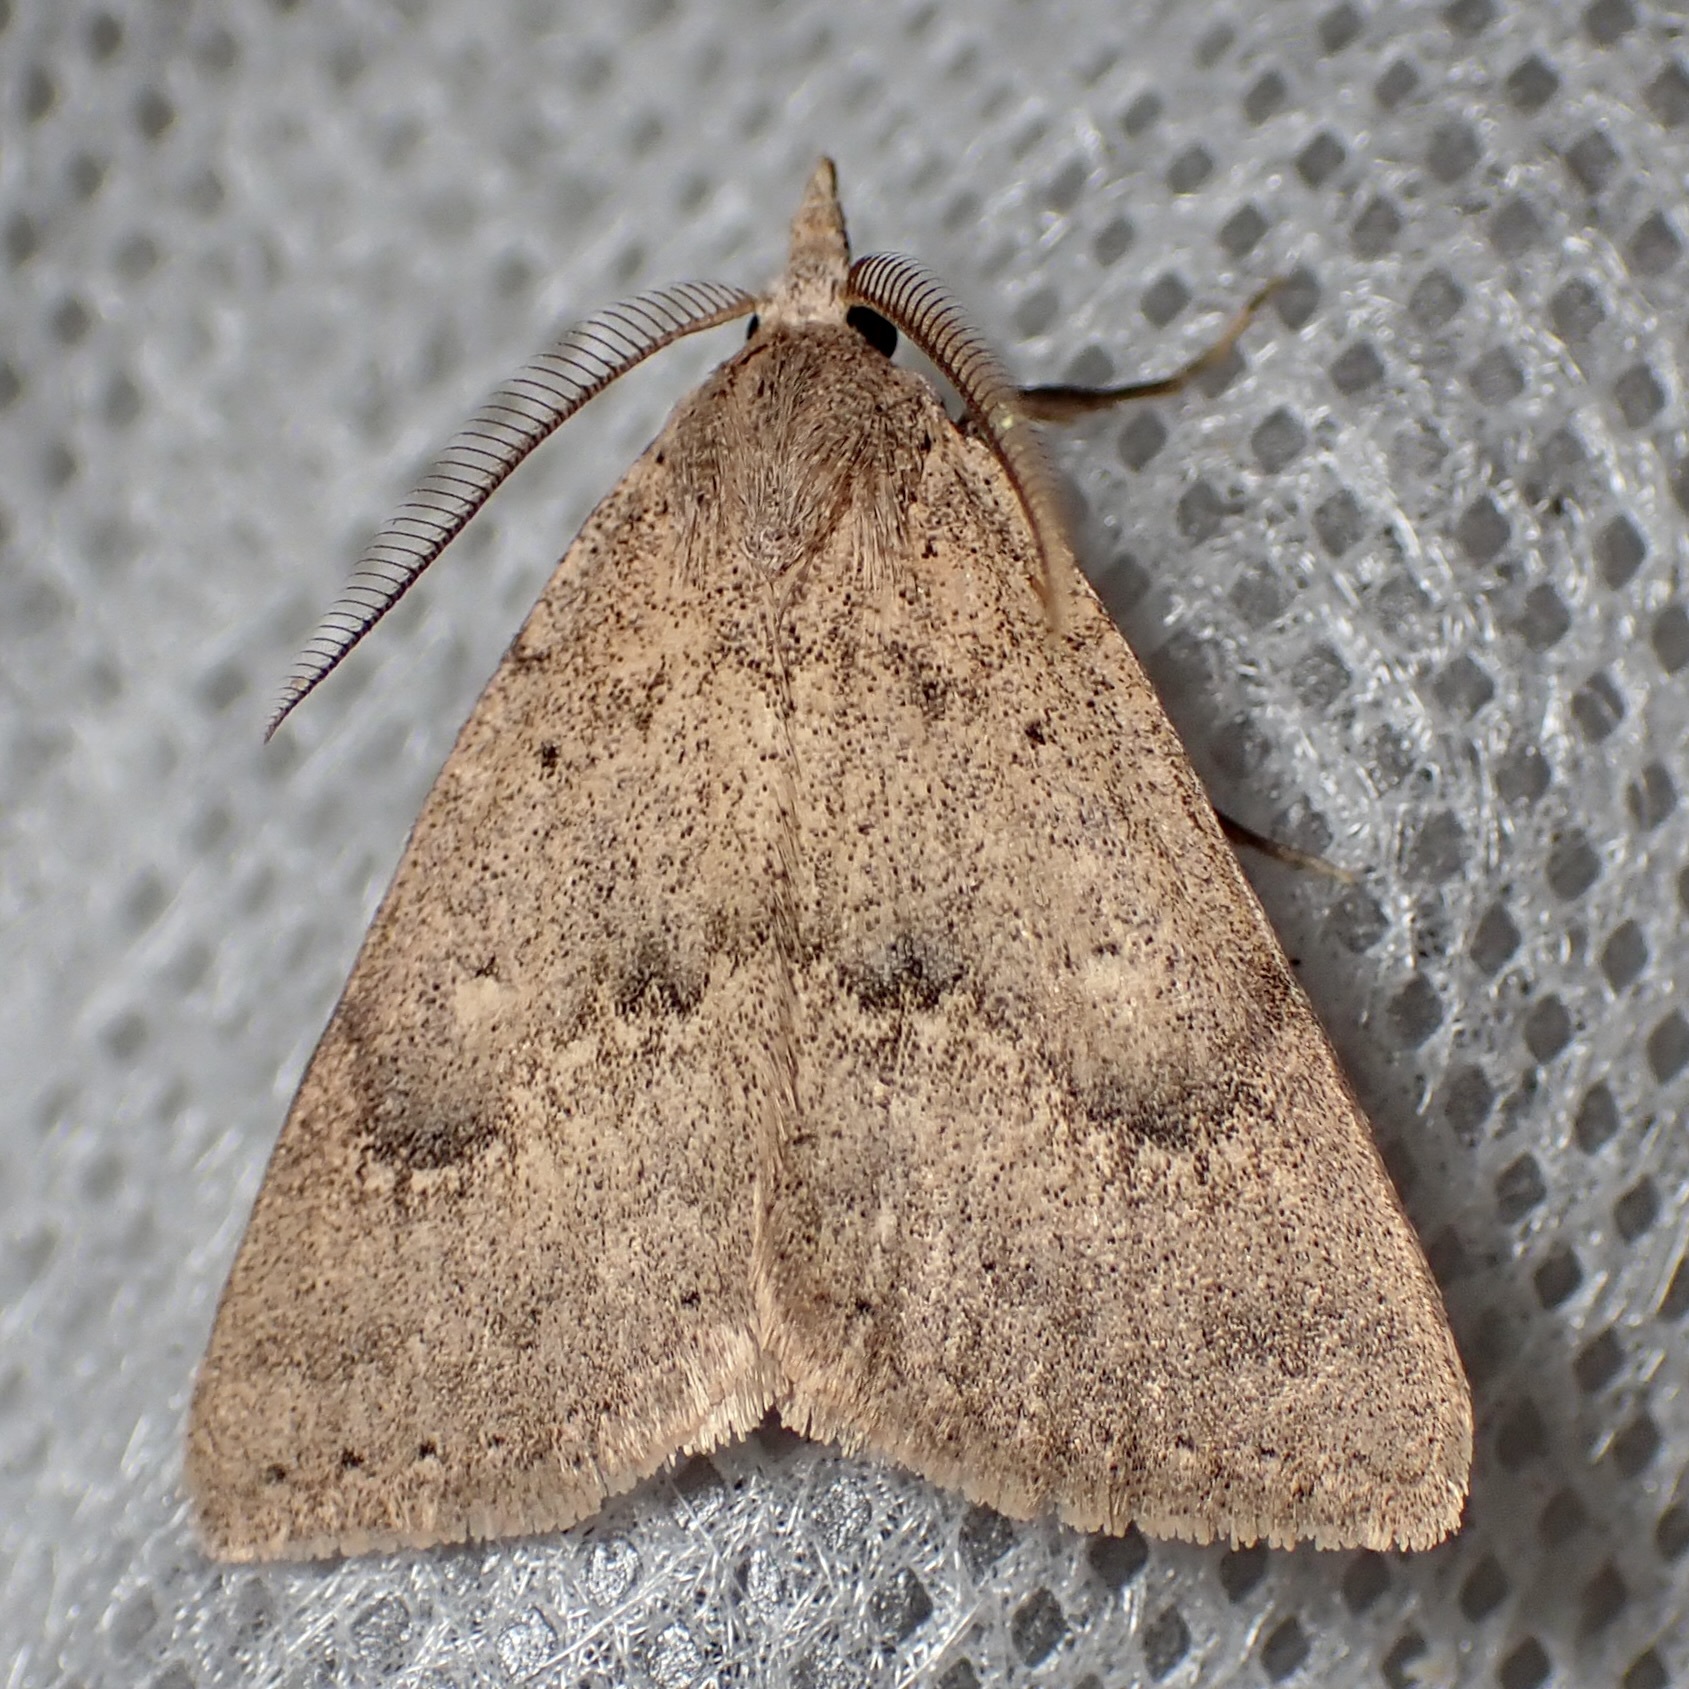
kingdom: Animalia
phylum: Arthropoda
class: Insecta
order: Lepidoptera
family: Erebidae
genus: Pseudorgyia
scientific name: Pseudorgyia russula
